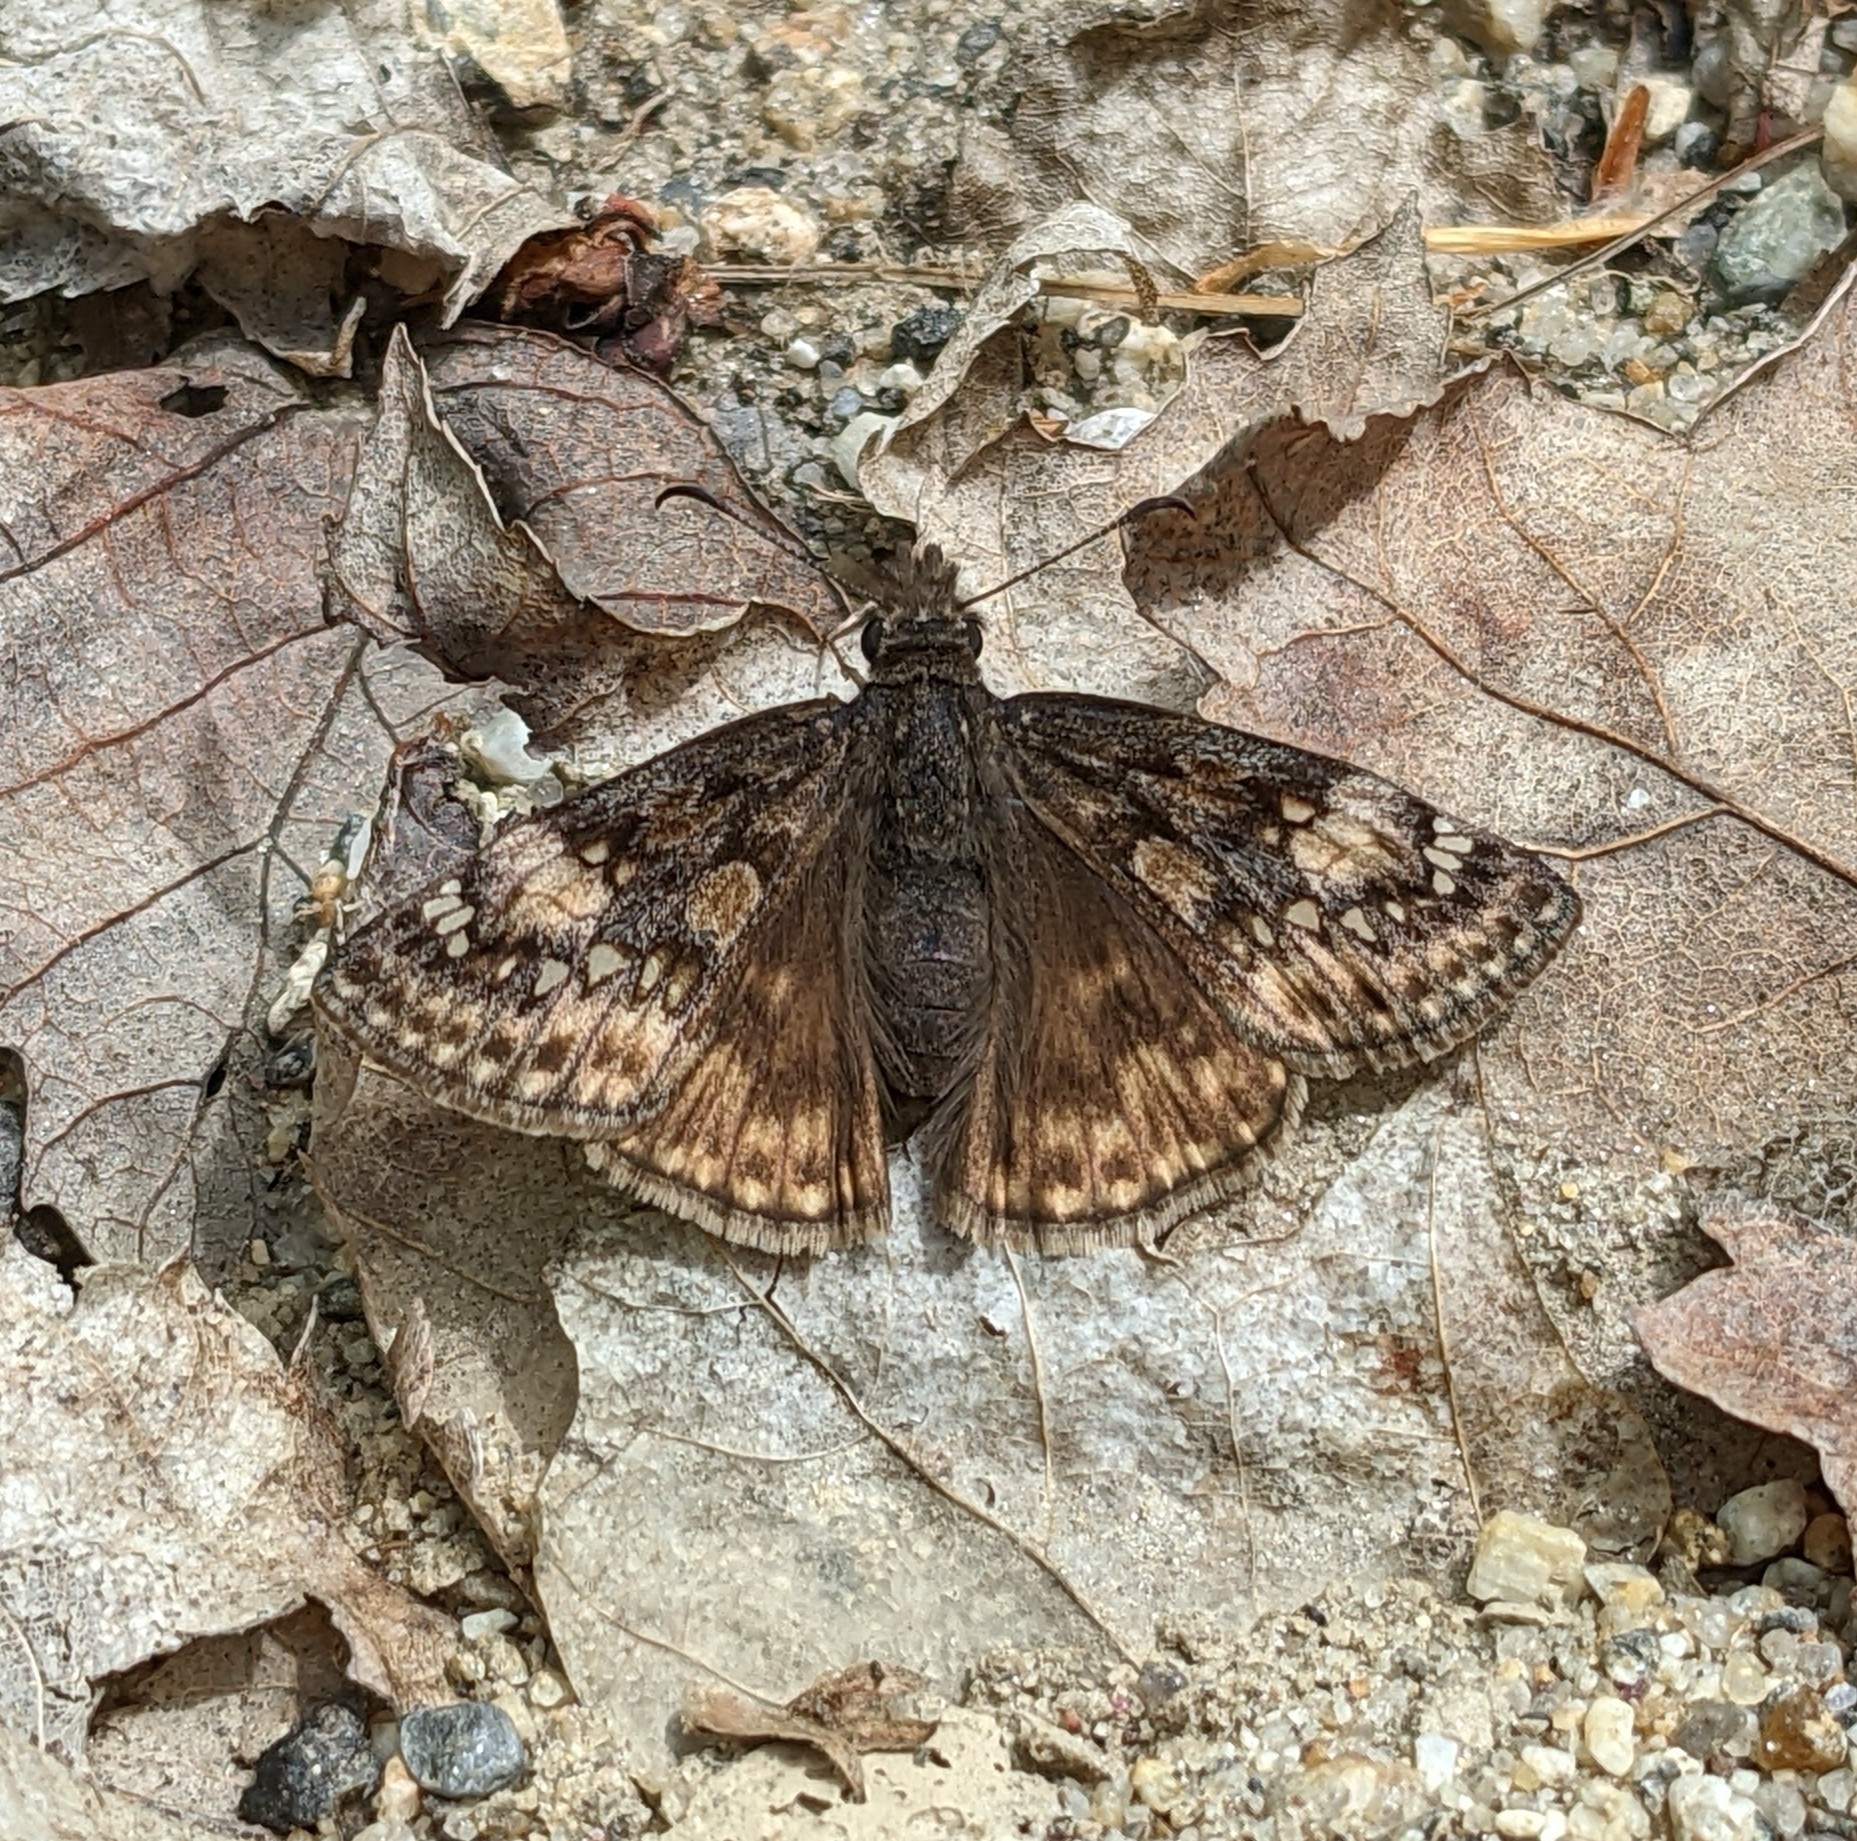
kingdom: Animalia
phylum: Arthropoda
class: Insecta
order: Lepidoptera
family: Hesperiidae
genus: Erynnis
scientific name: Erynnis juvenalis
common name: Juvenal's duskywing
